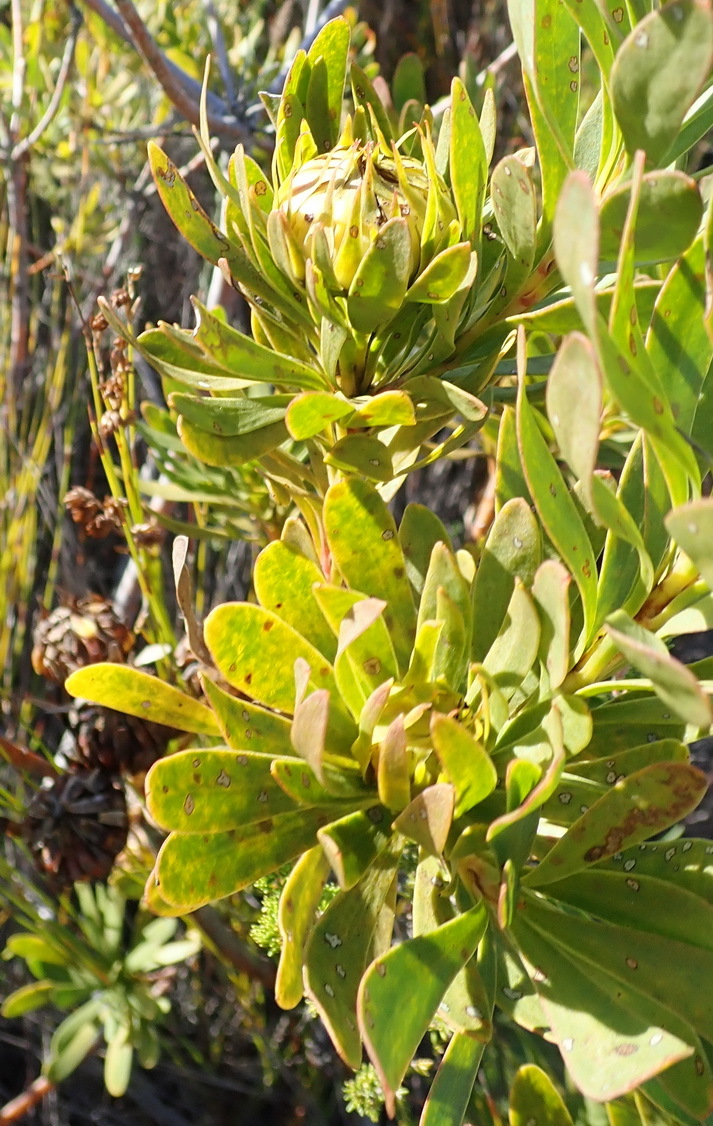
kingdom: Plantae
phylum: Tracheophyta
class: Magnoliopsida
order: Proteales
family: Proteaceae
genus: Aulax
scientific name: Aulax umbellata
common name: Broad-leaf featherbush
